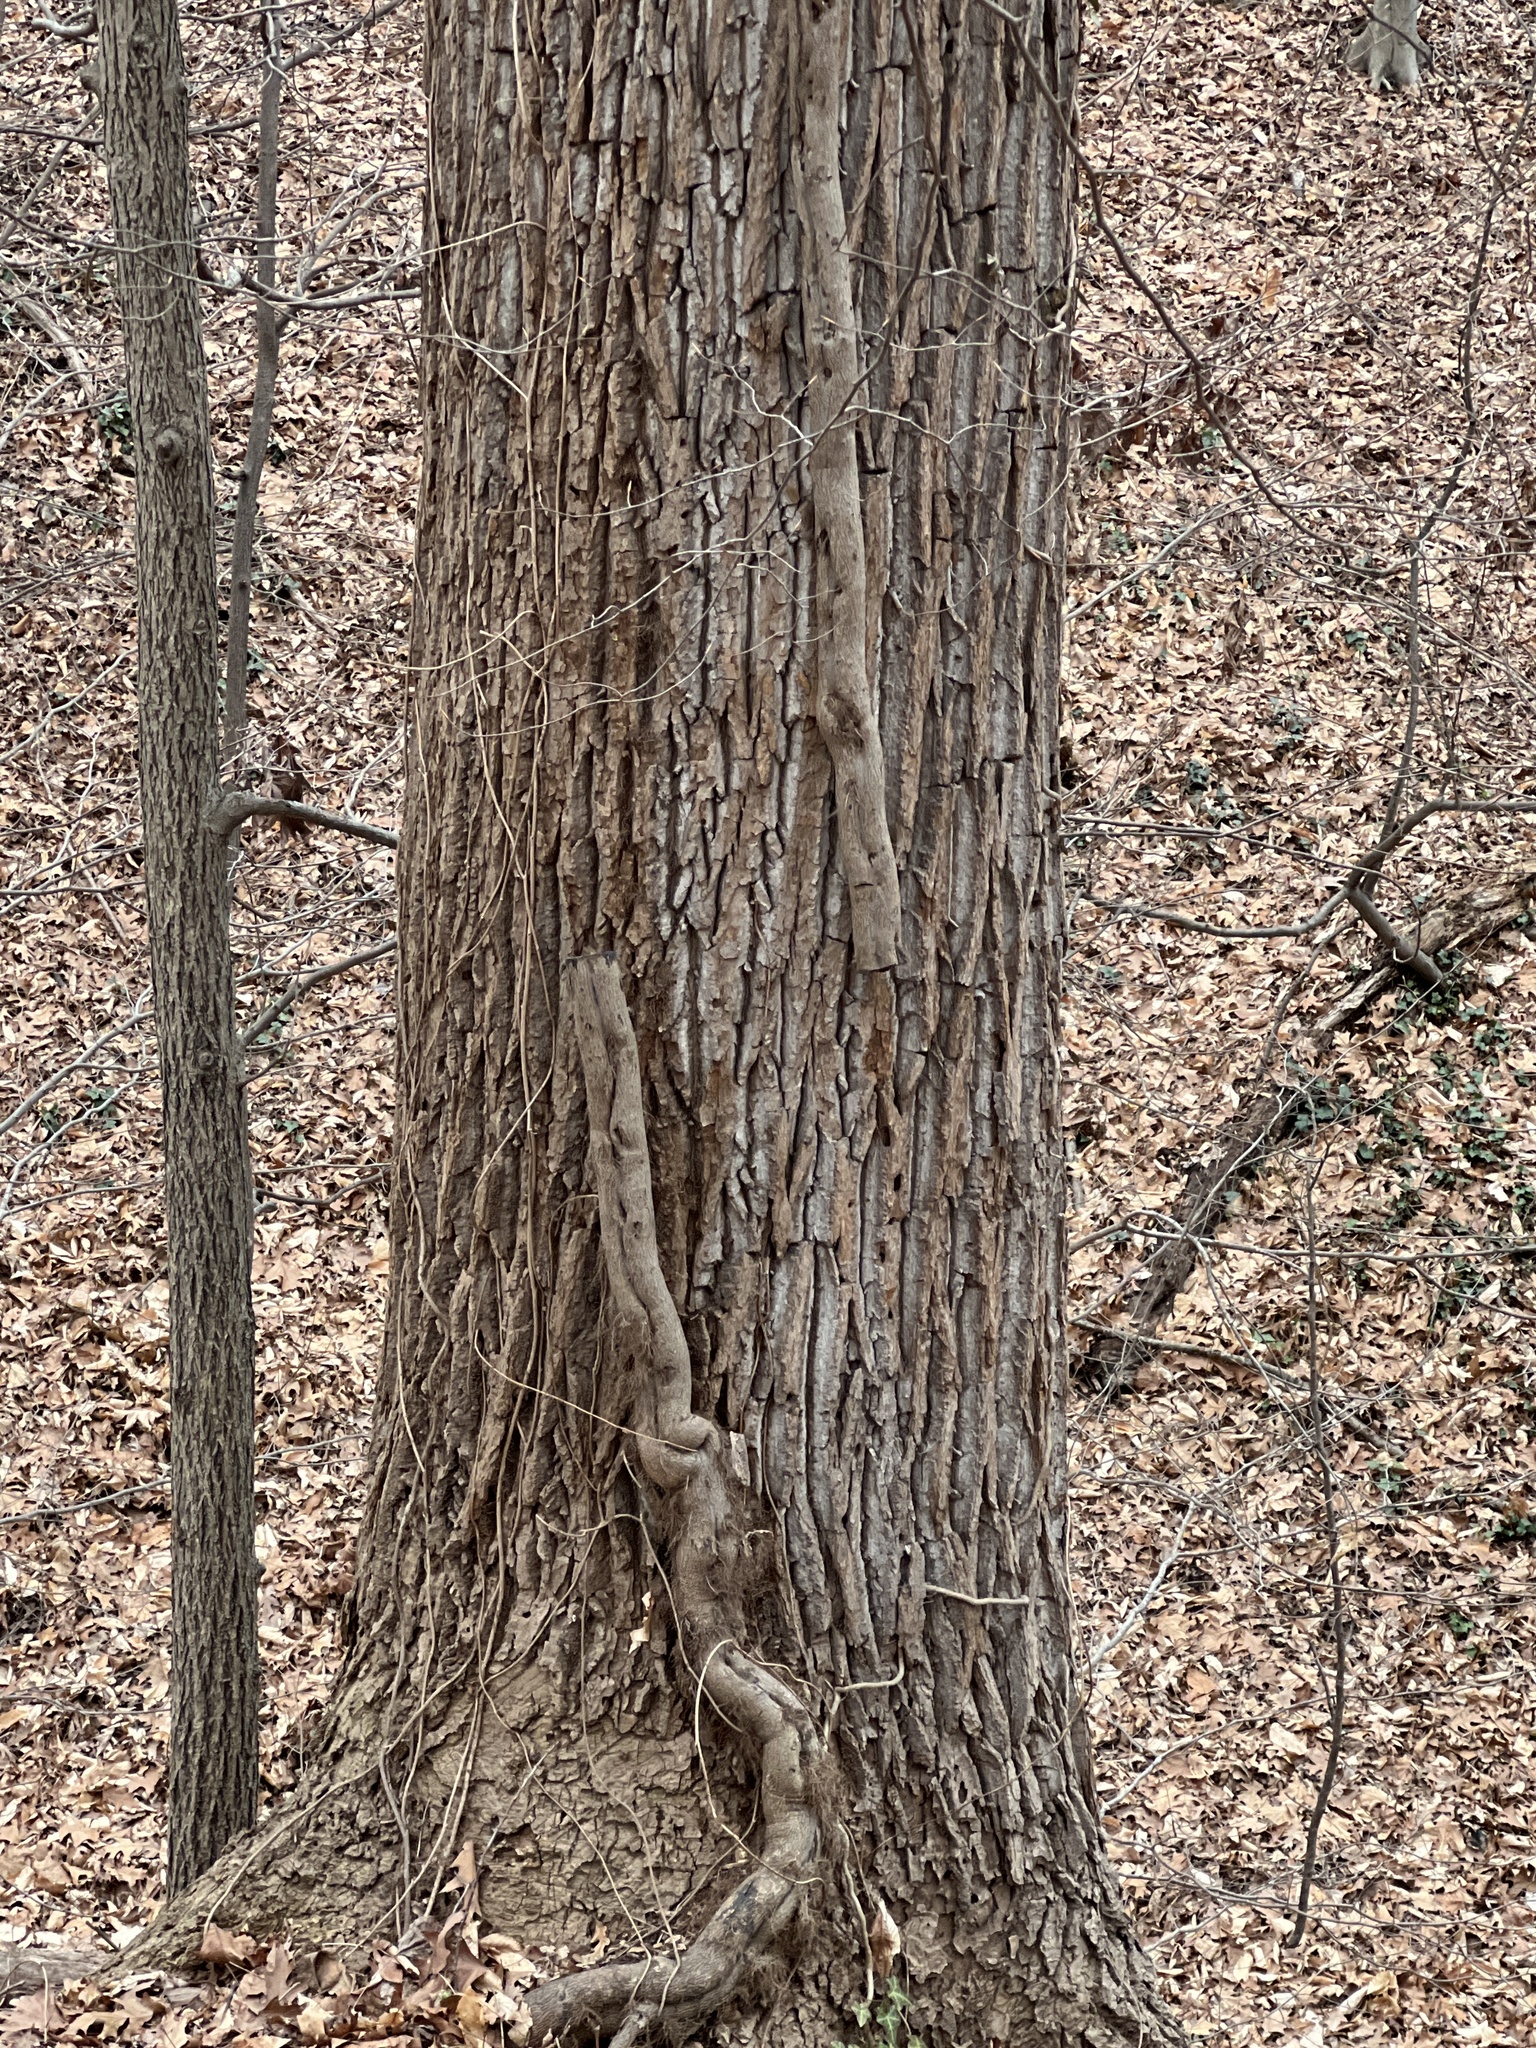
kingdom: Plantae
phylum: Tracheophyta
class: Magnoliopsida
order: Magnoliales
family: Magnoliaceae
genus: Liriodendron
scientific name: Liriodendron tulipifera
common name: Tulip tree
